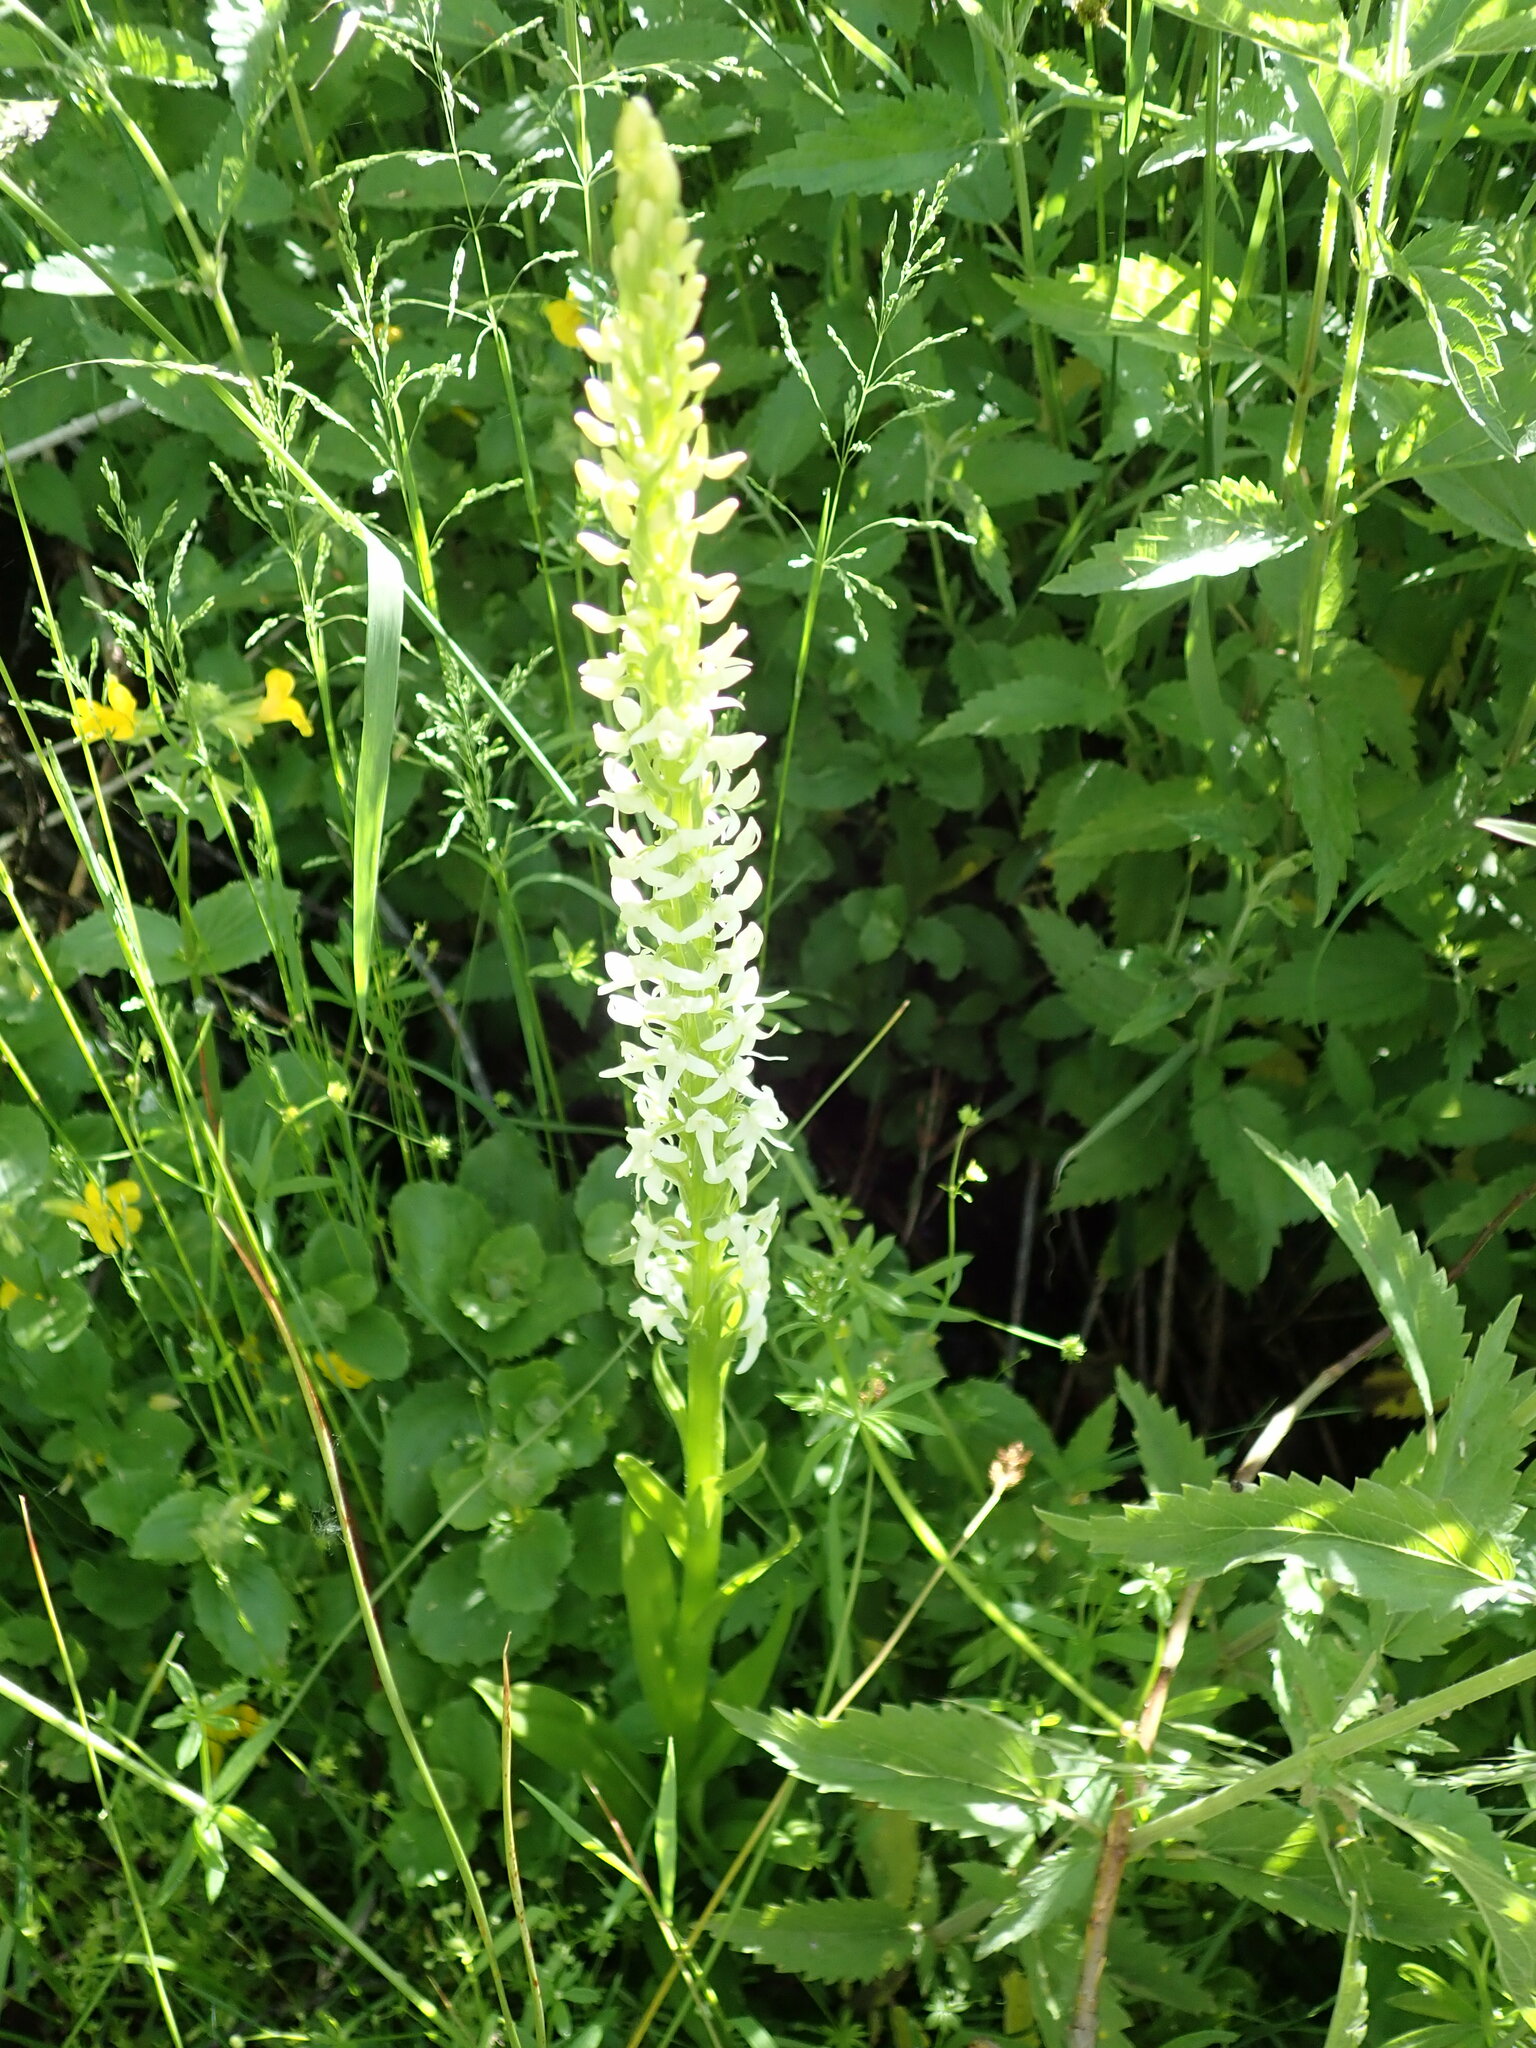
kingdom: Plantae
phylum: Tracheophyta
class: Liliopsida
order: Asparagales
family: Orchidaceae
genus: Platanthera
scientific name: Platanthera dilatata
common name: Bog candles
